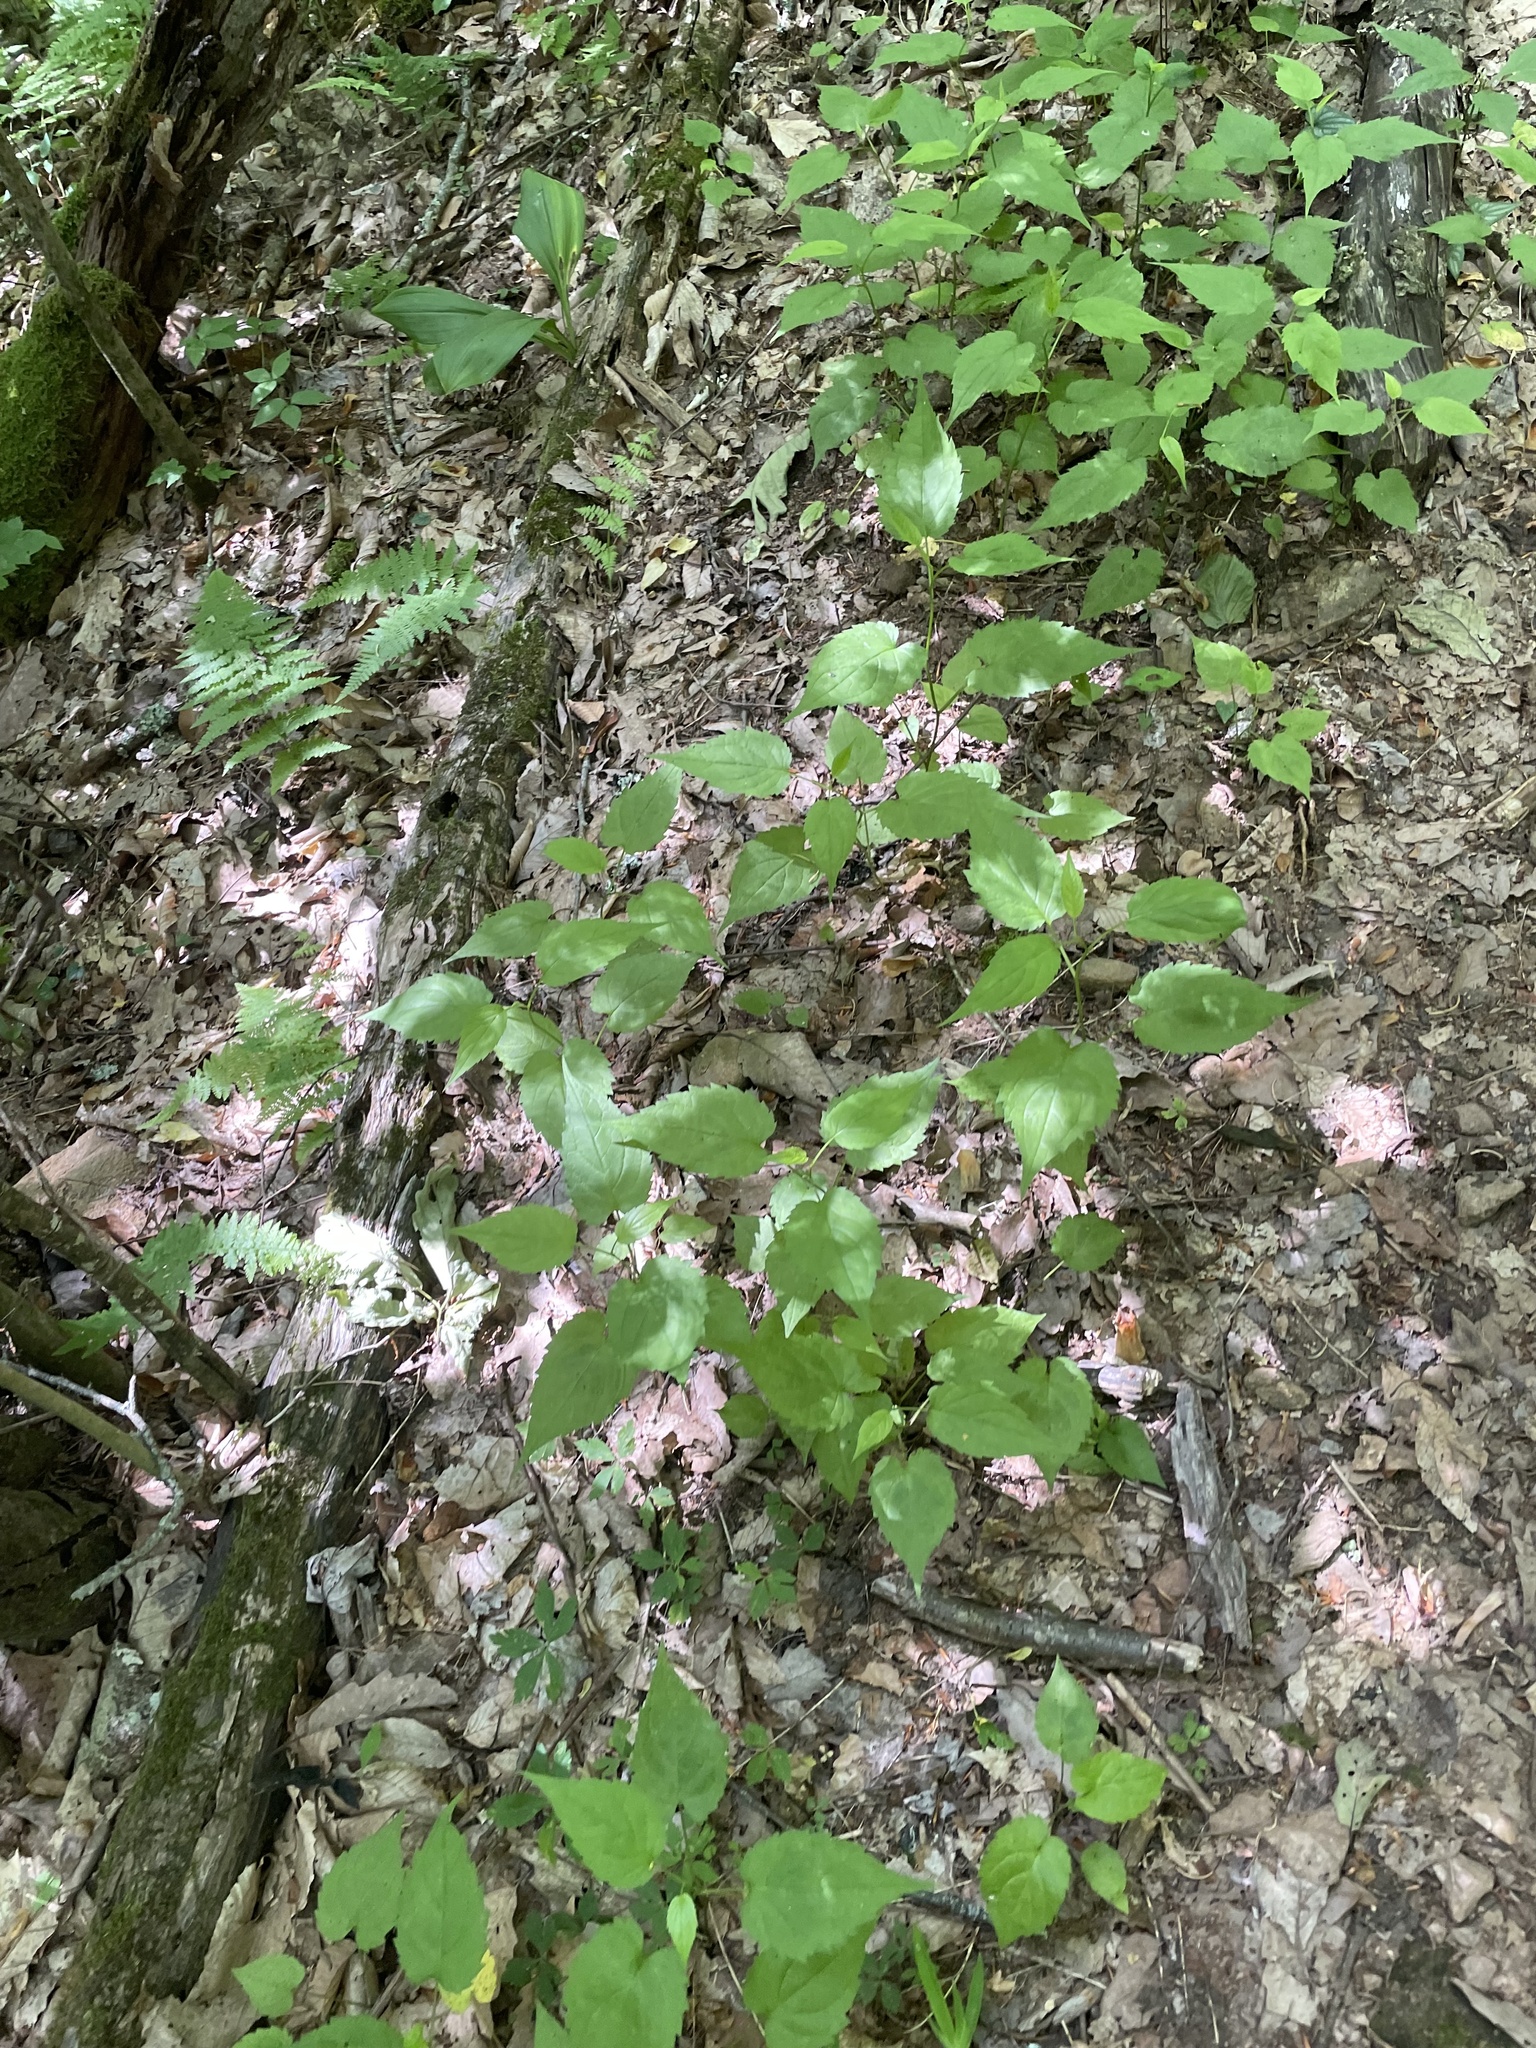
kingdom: Plantae
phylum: Tracheophyta
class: Magnoliopsida
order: Asterales
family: Asteraceae
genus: Eurybia
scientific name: Eurybia divaricata
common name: White wood aster
